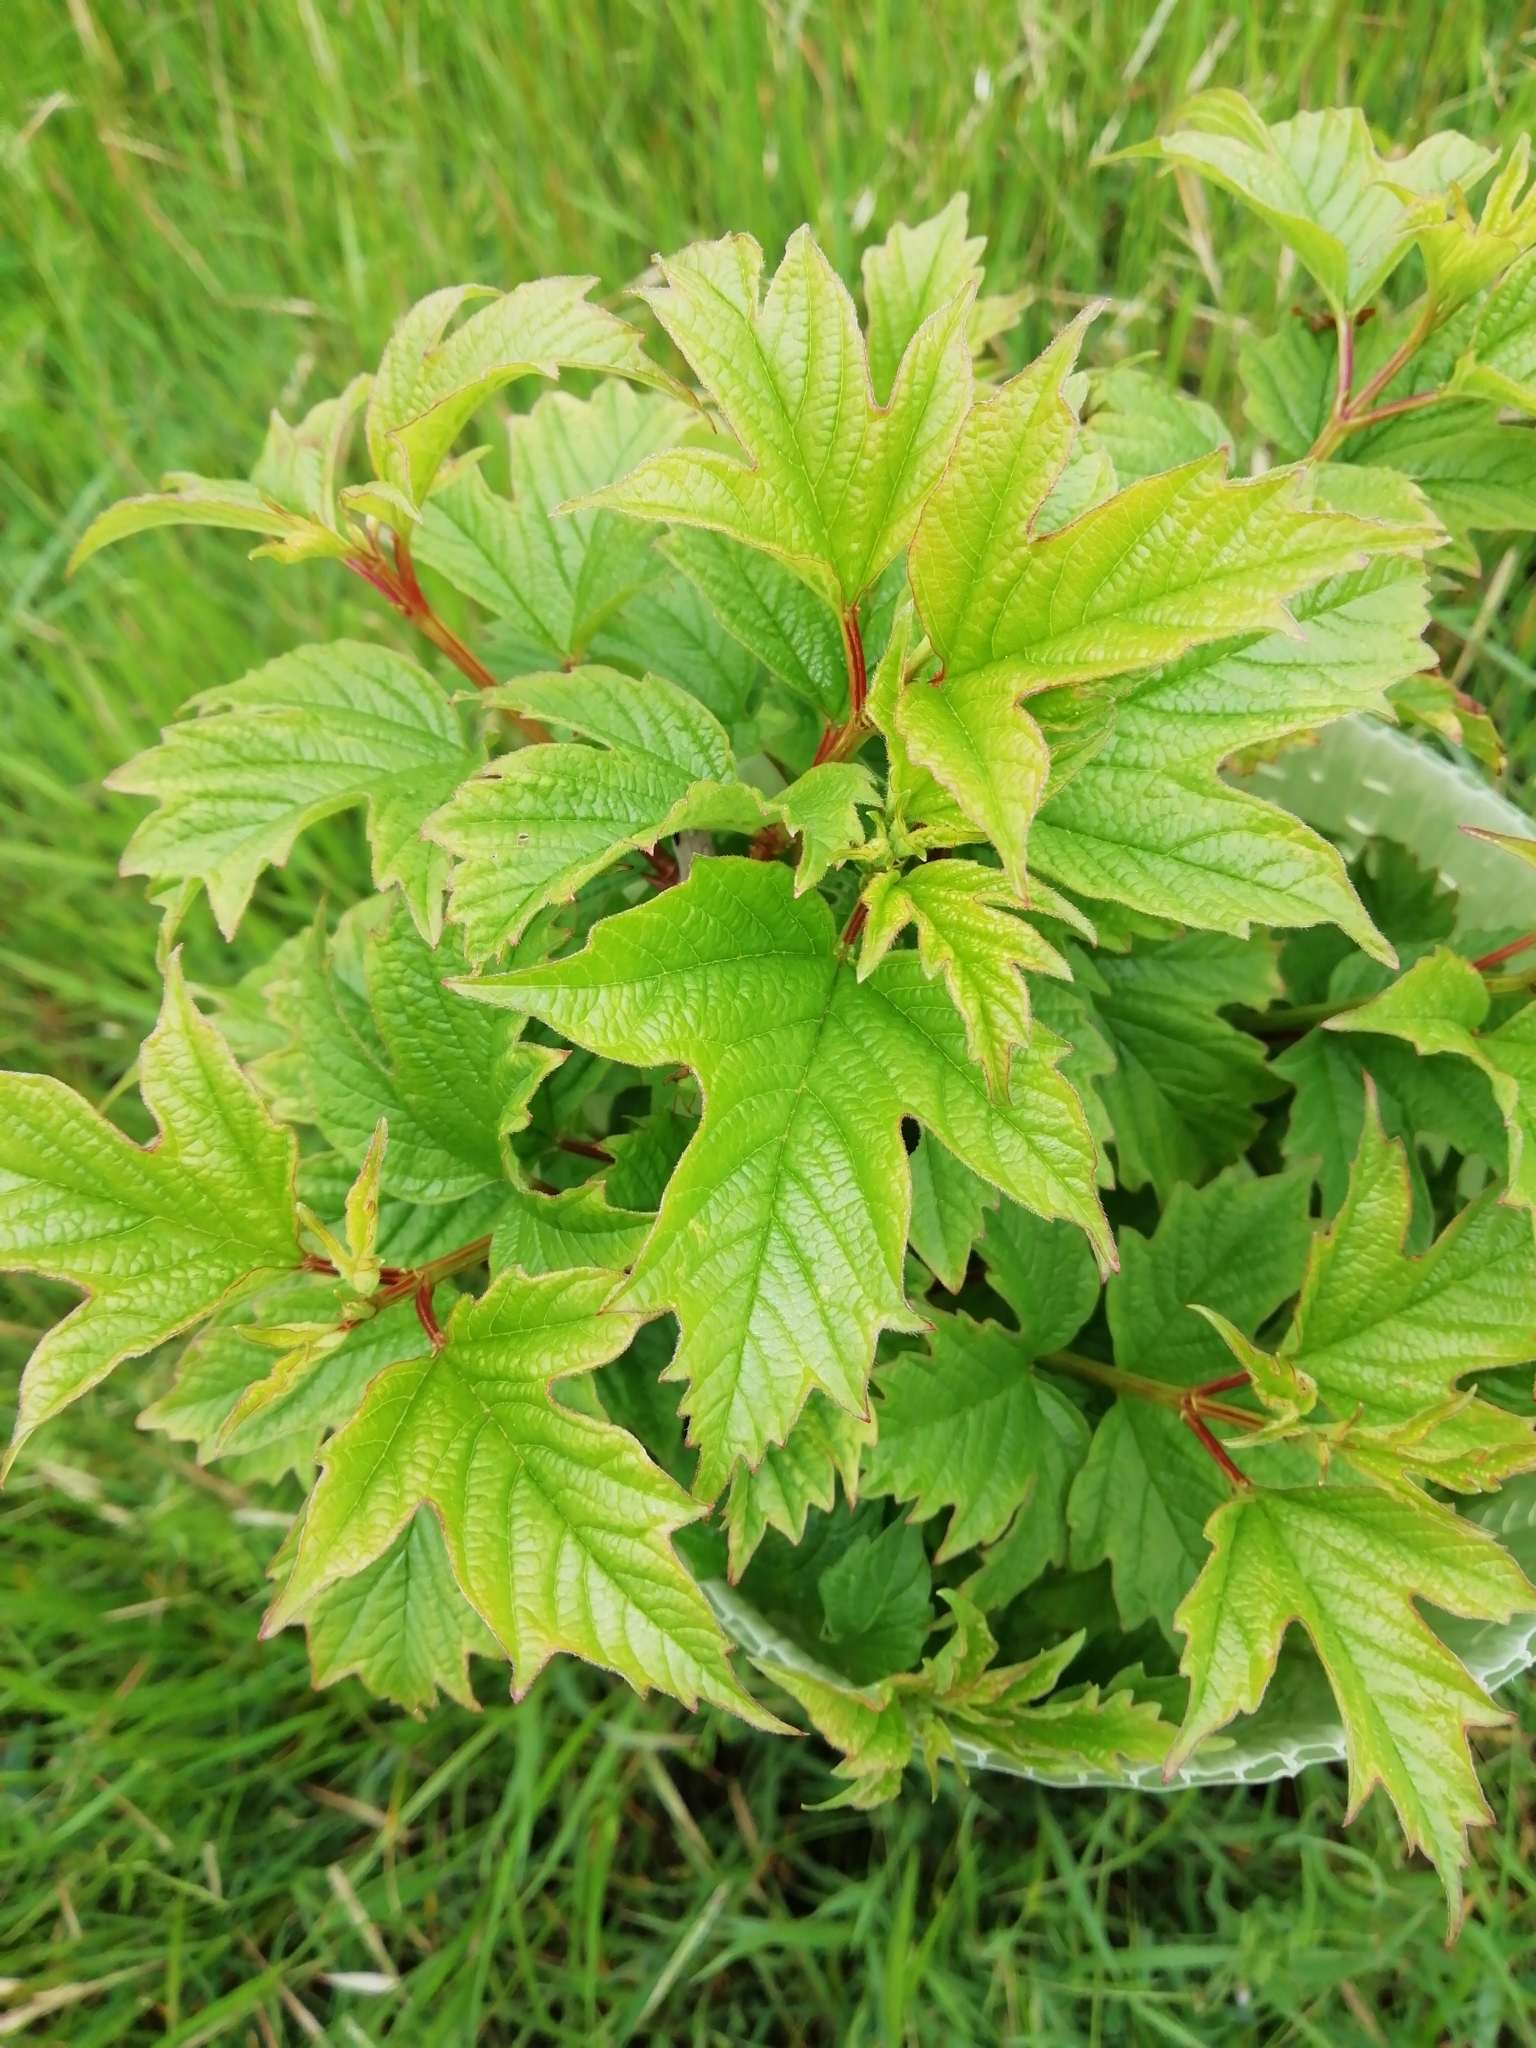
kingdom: Plantae
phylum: Tracheophyta
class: Magnoliopsida
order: Dipsacales
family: Viburnaceae
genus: Viburnum
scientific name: Viburnum opulus
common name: Guelder-rose
